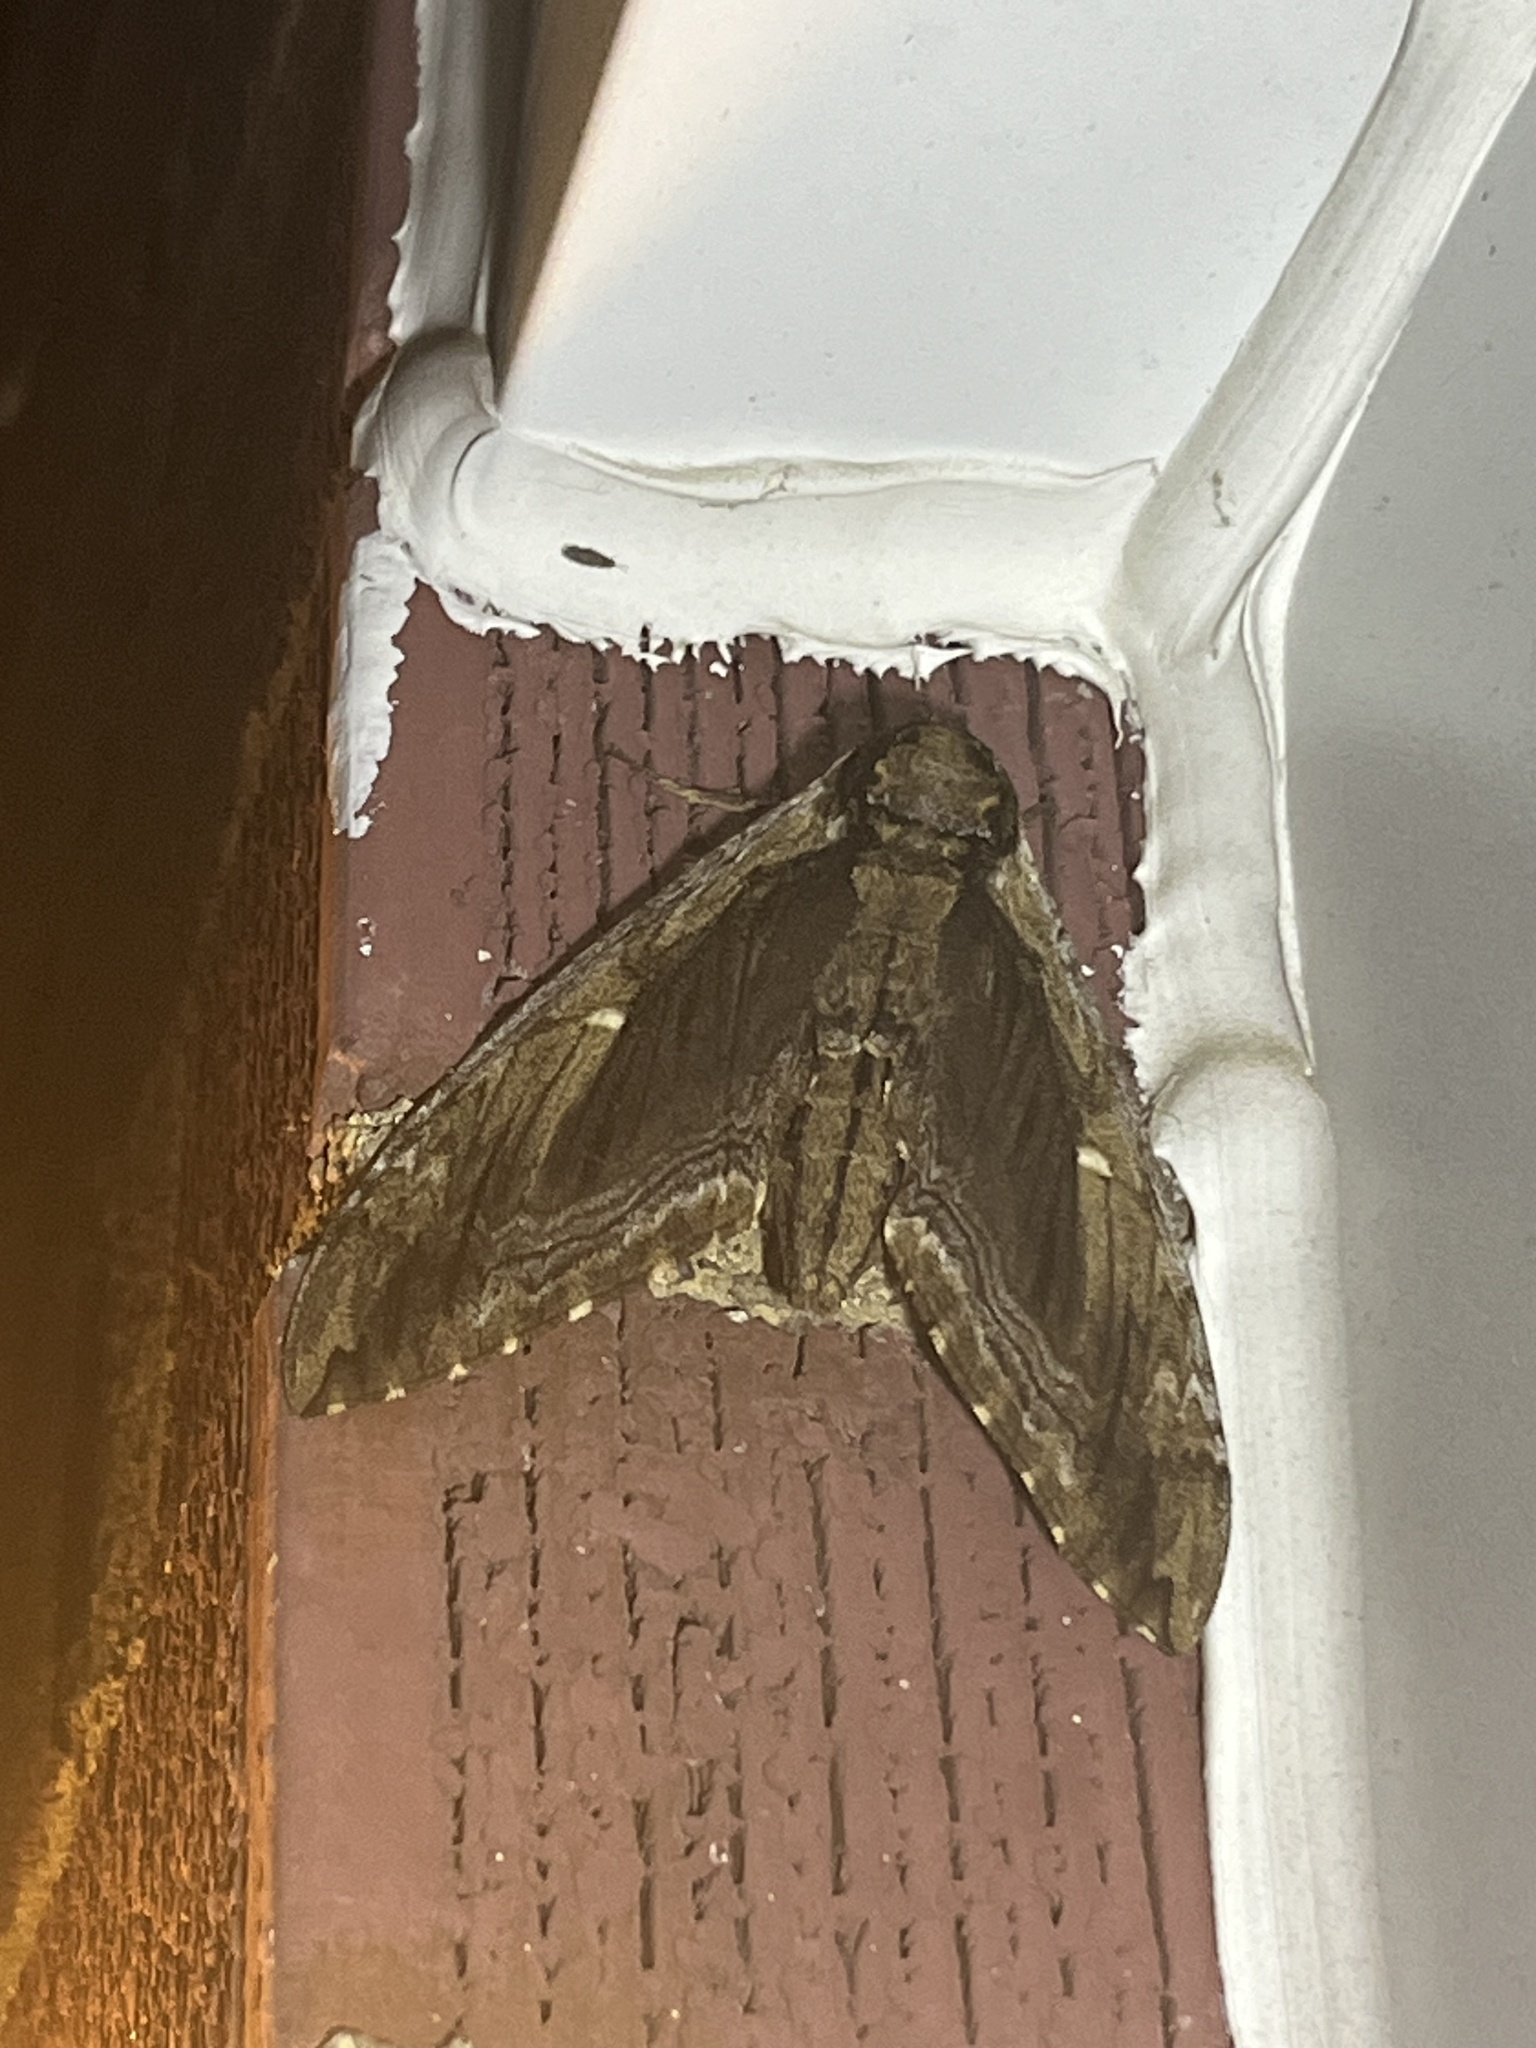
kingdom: Animalia
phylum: Arthropoda
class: Insecta
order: Lepidoptera
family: Sphingidae
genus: Ceratomia
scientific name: Ceratomia amyntor
